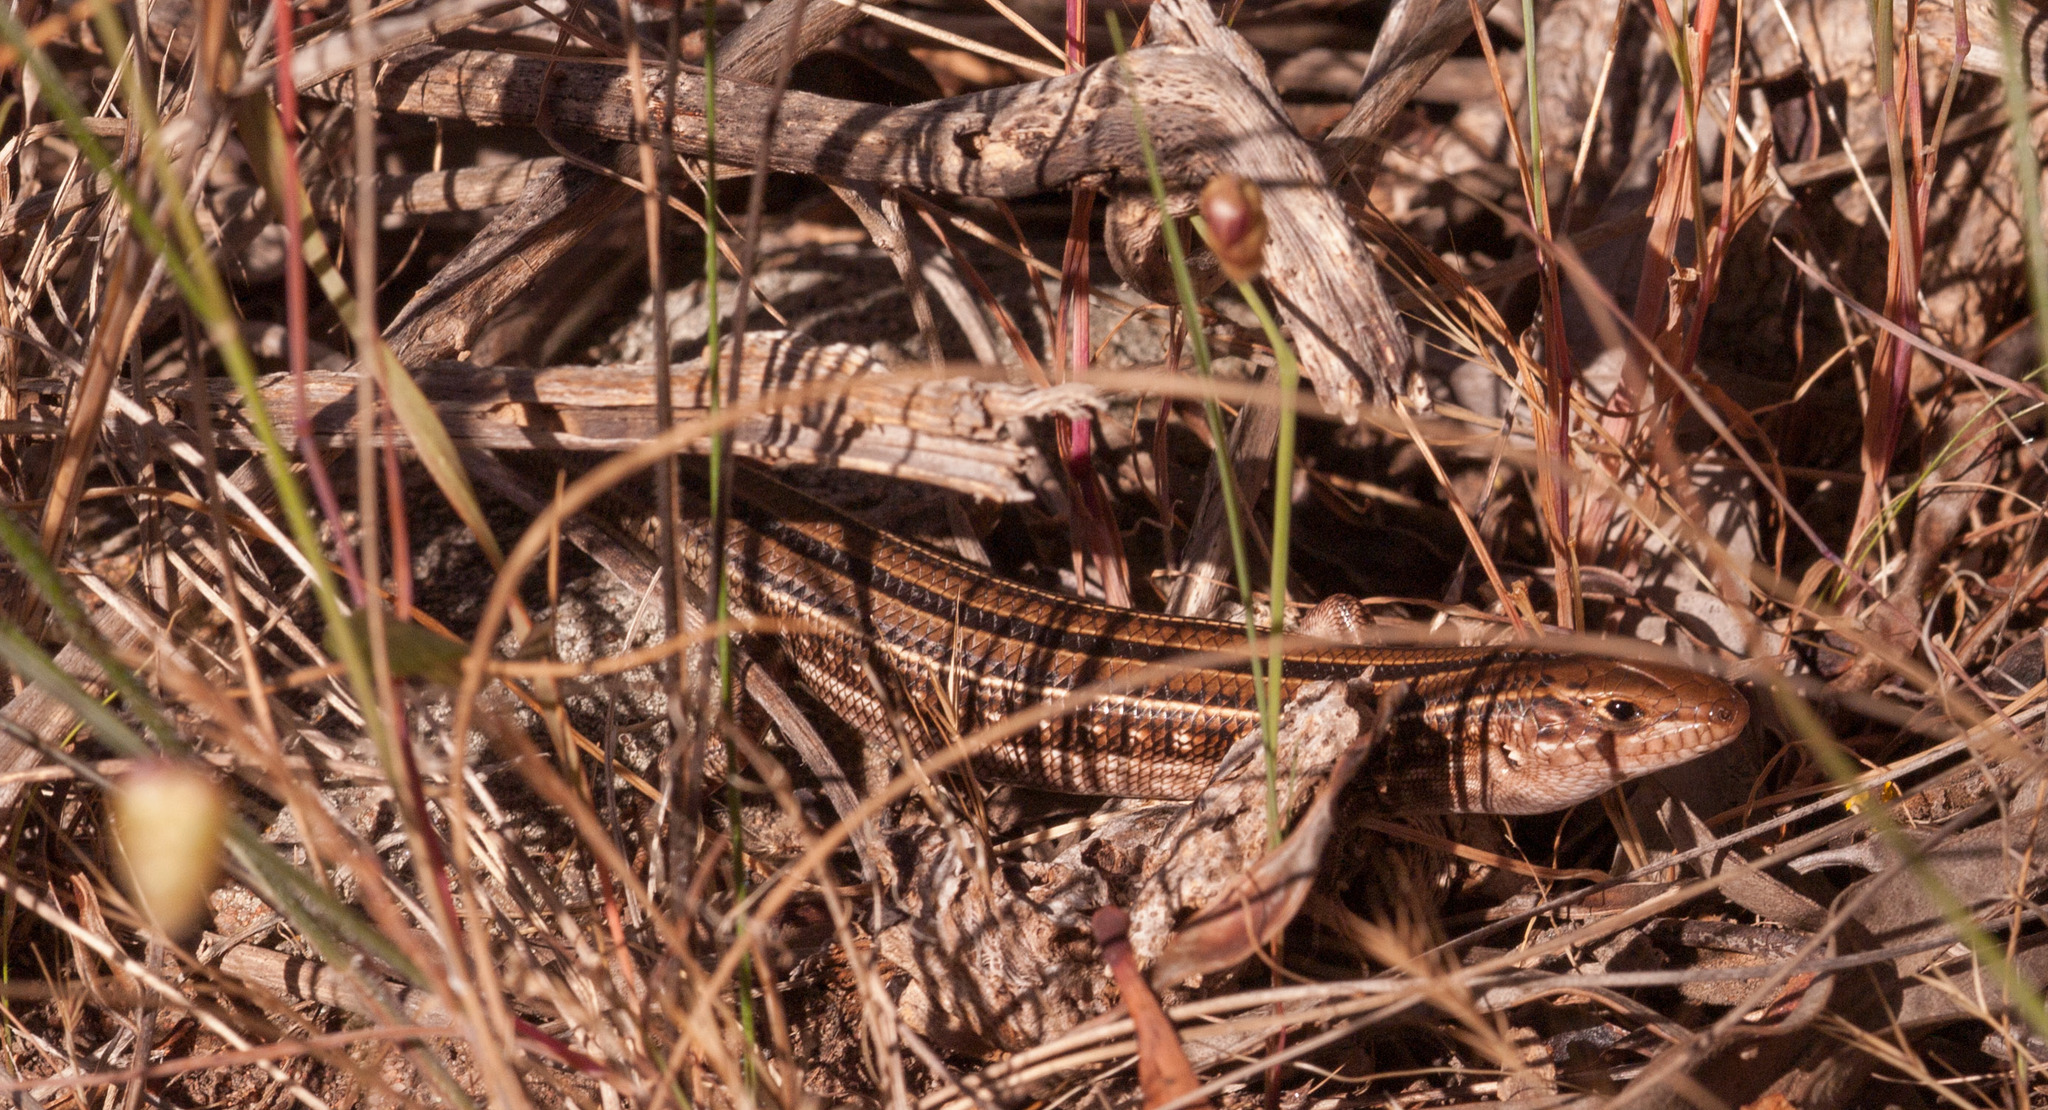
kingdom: Animalia
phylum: Chordata
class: Squamata
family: Scincidae
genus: Ctenotus
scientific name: Ctenotus spaldingi
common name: Straight-browed ctenotus
